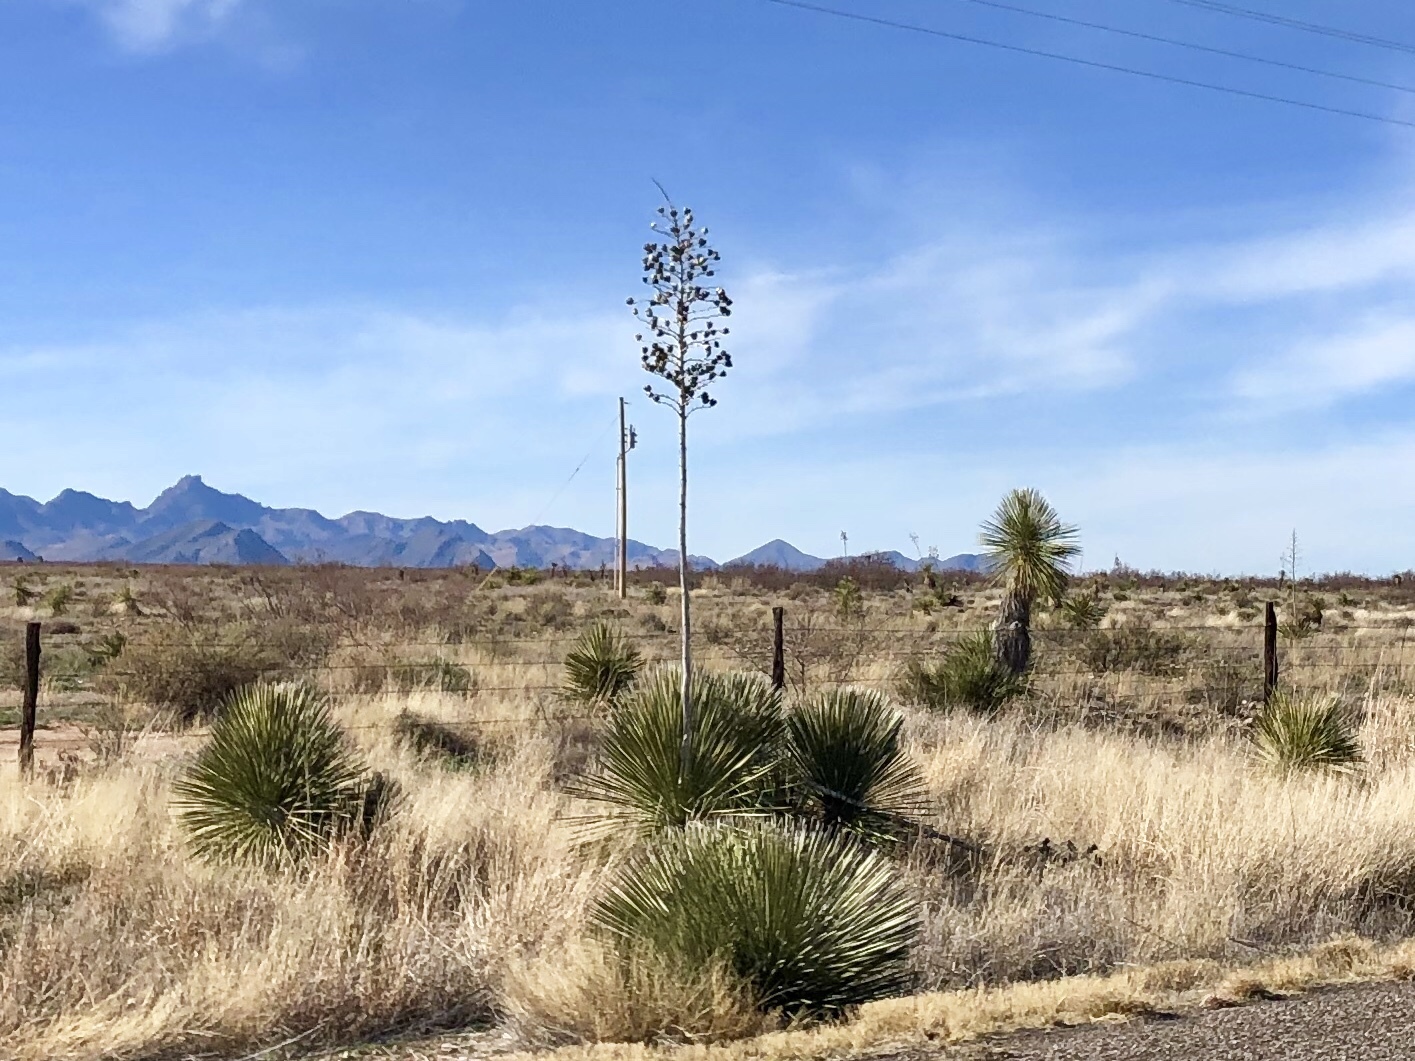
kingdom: Plantae
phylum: Tracheophyta
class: Liliopsida
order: Asparagales
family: Asparagaceae
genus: Yucca
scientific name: Yucca elata
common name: Palmella
